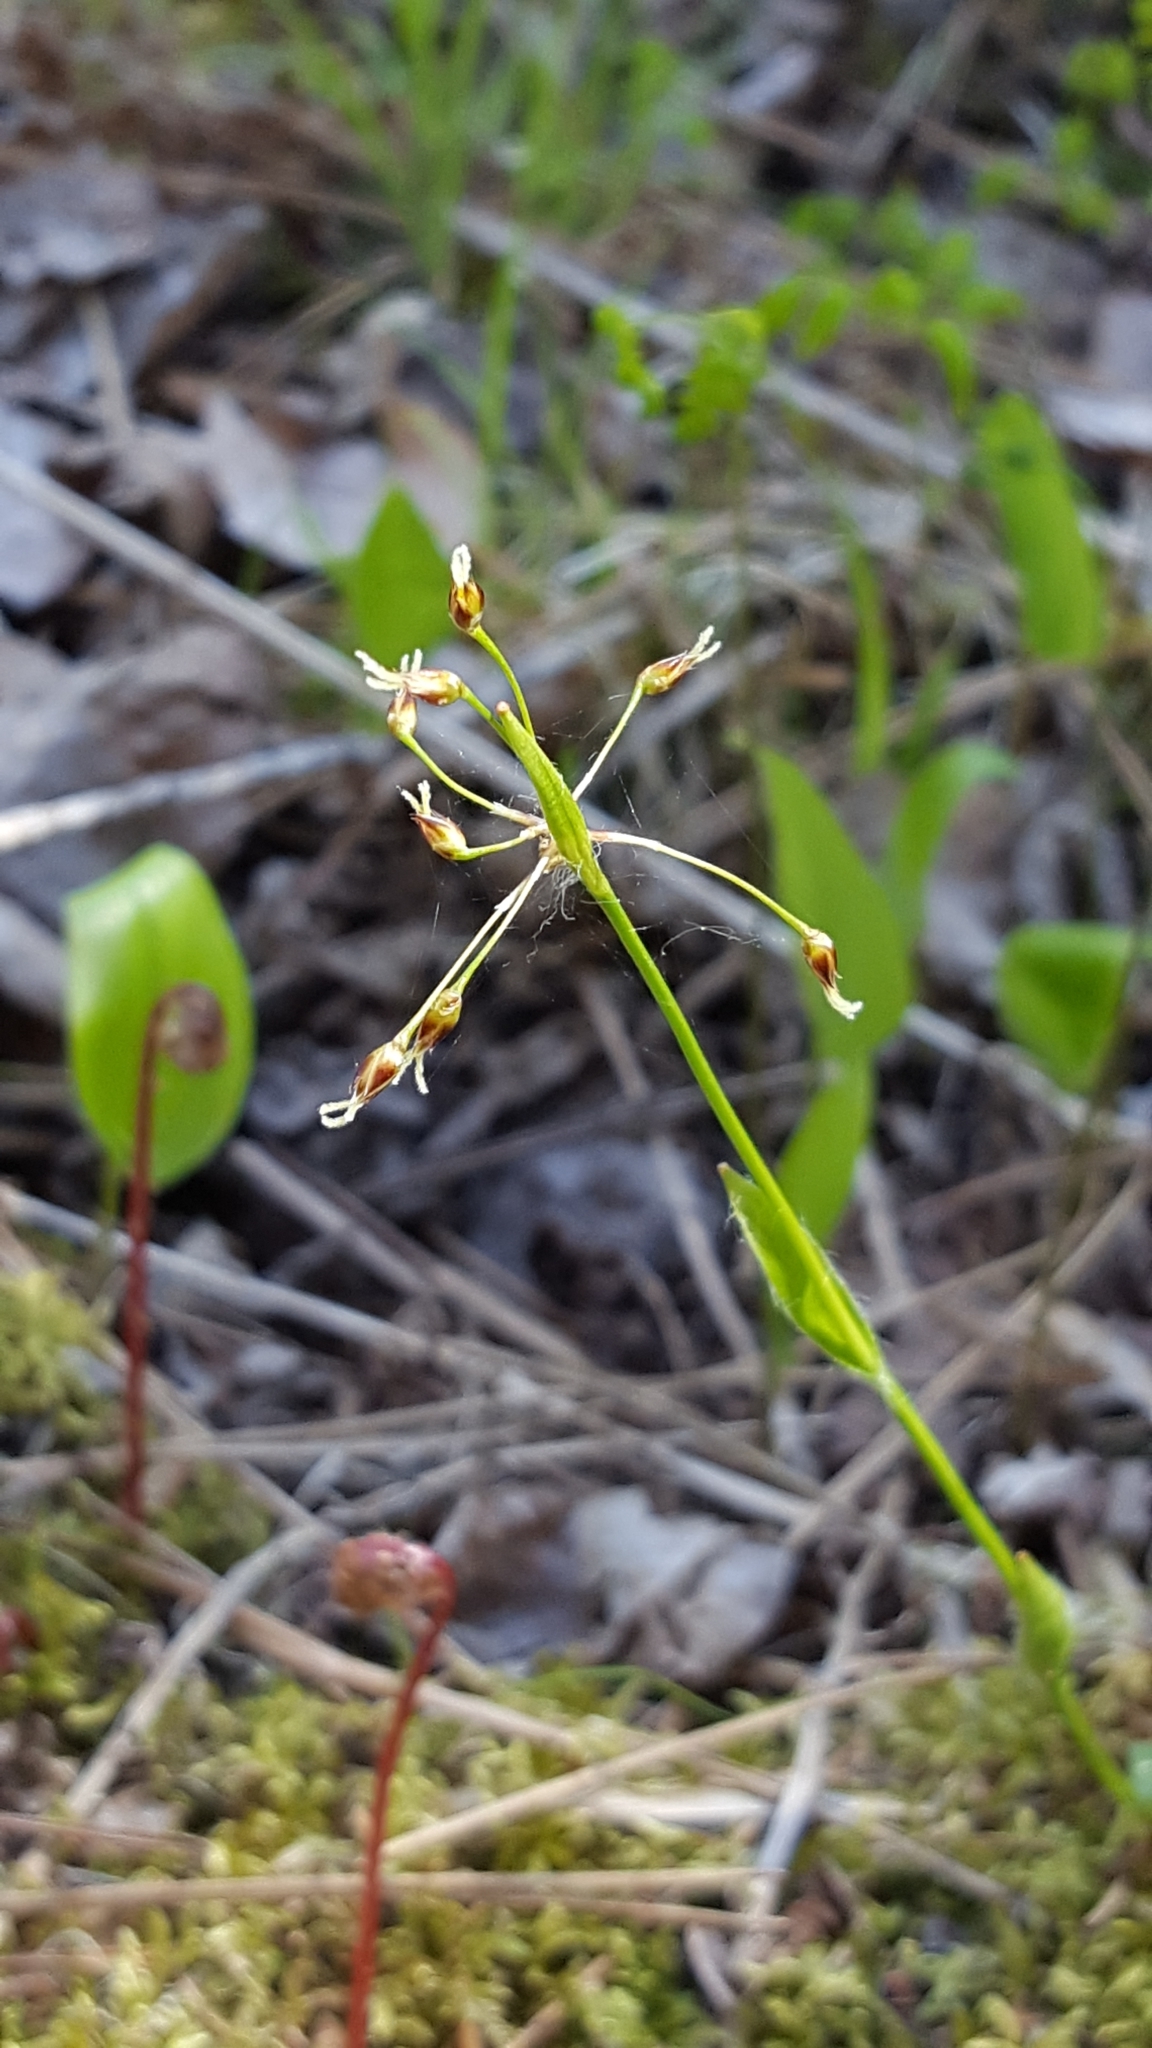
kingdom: Plantae
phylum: Tracheophyta
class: Liliopsida
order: Poales
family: Juncaceae
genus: Luzula
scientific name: Luzula acuminata
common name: Hairy woodrush
